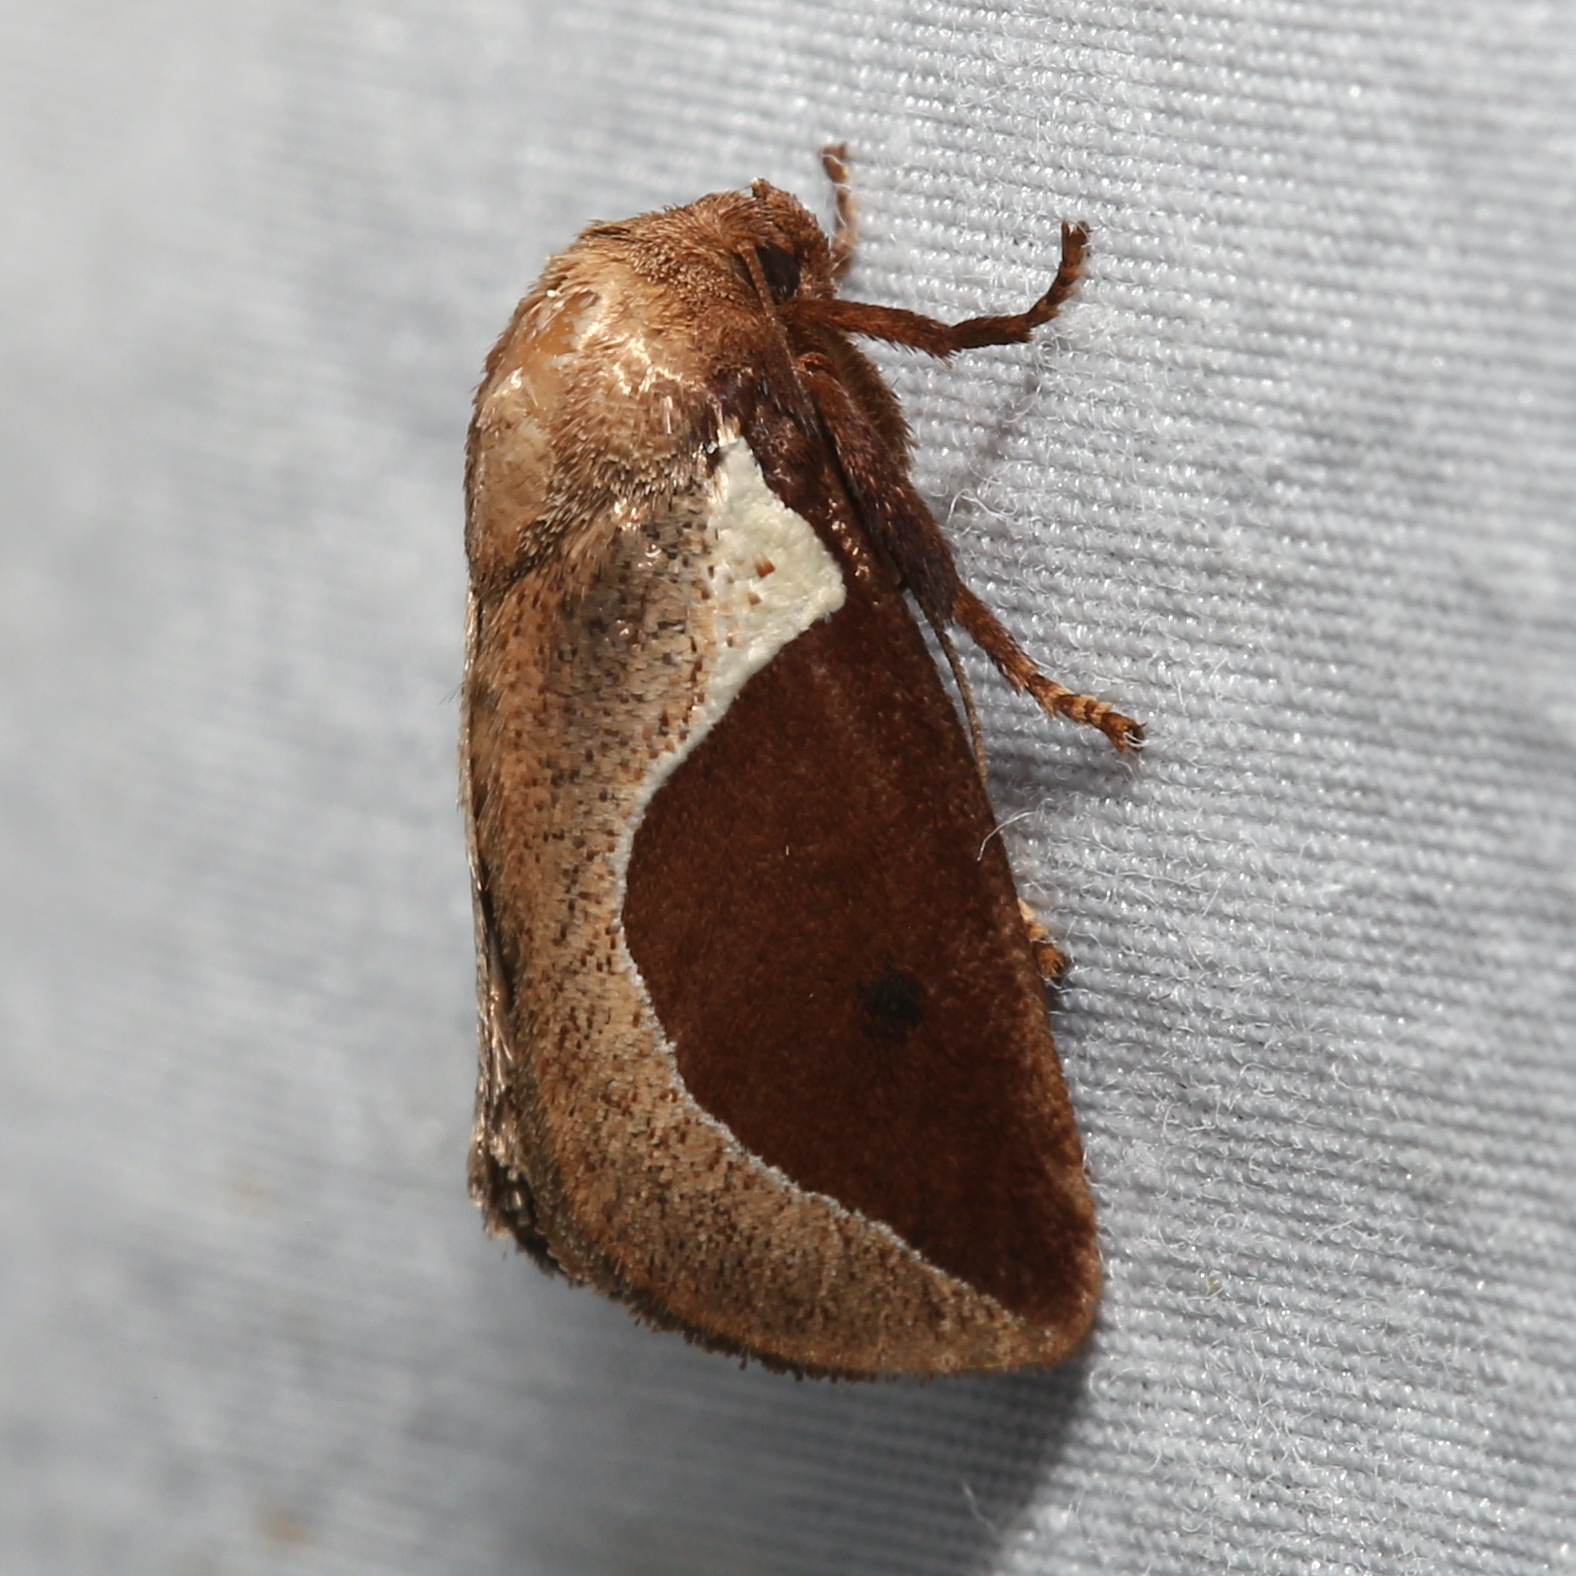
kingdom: Animalia
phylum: Arthropoda
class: Insecta
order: Lepidoptera
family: Limacodidae
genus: Prolimacodes
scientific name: Prolimacodes badia
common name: Skiff moth
